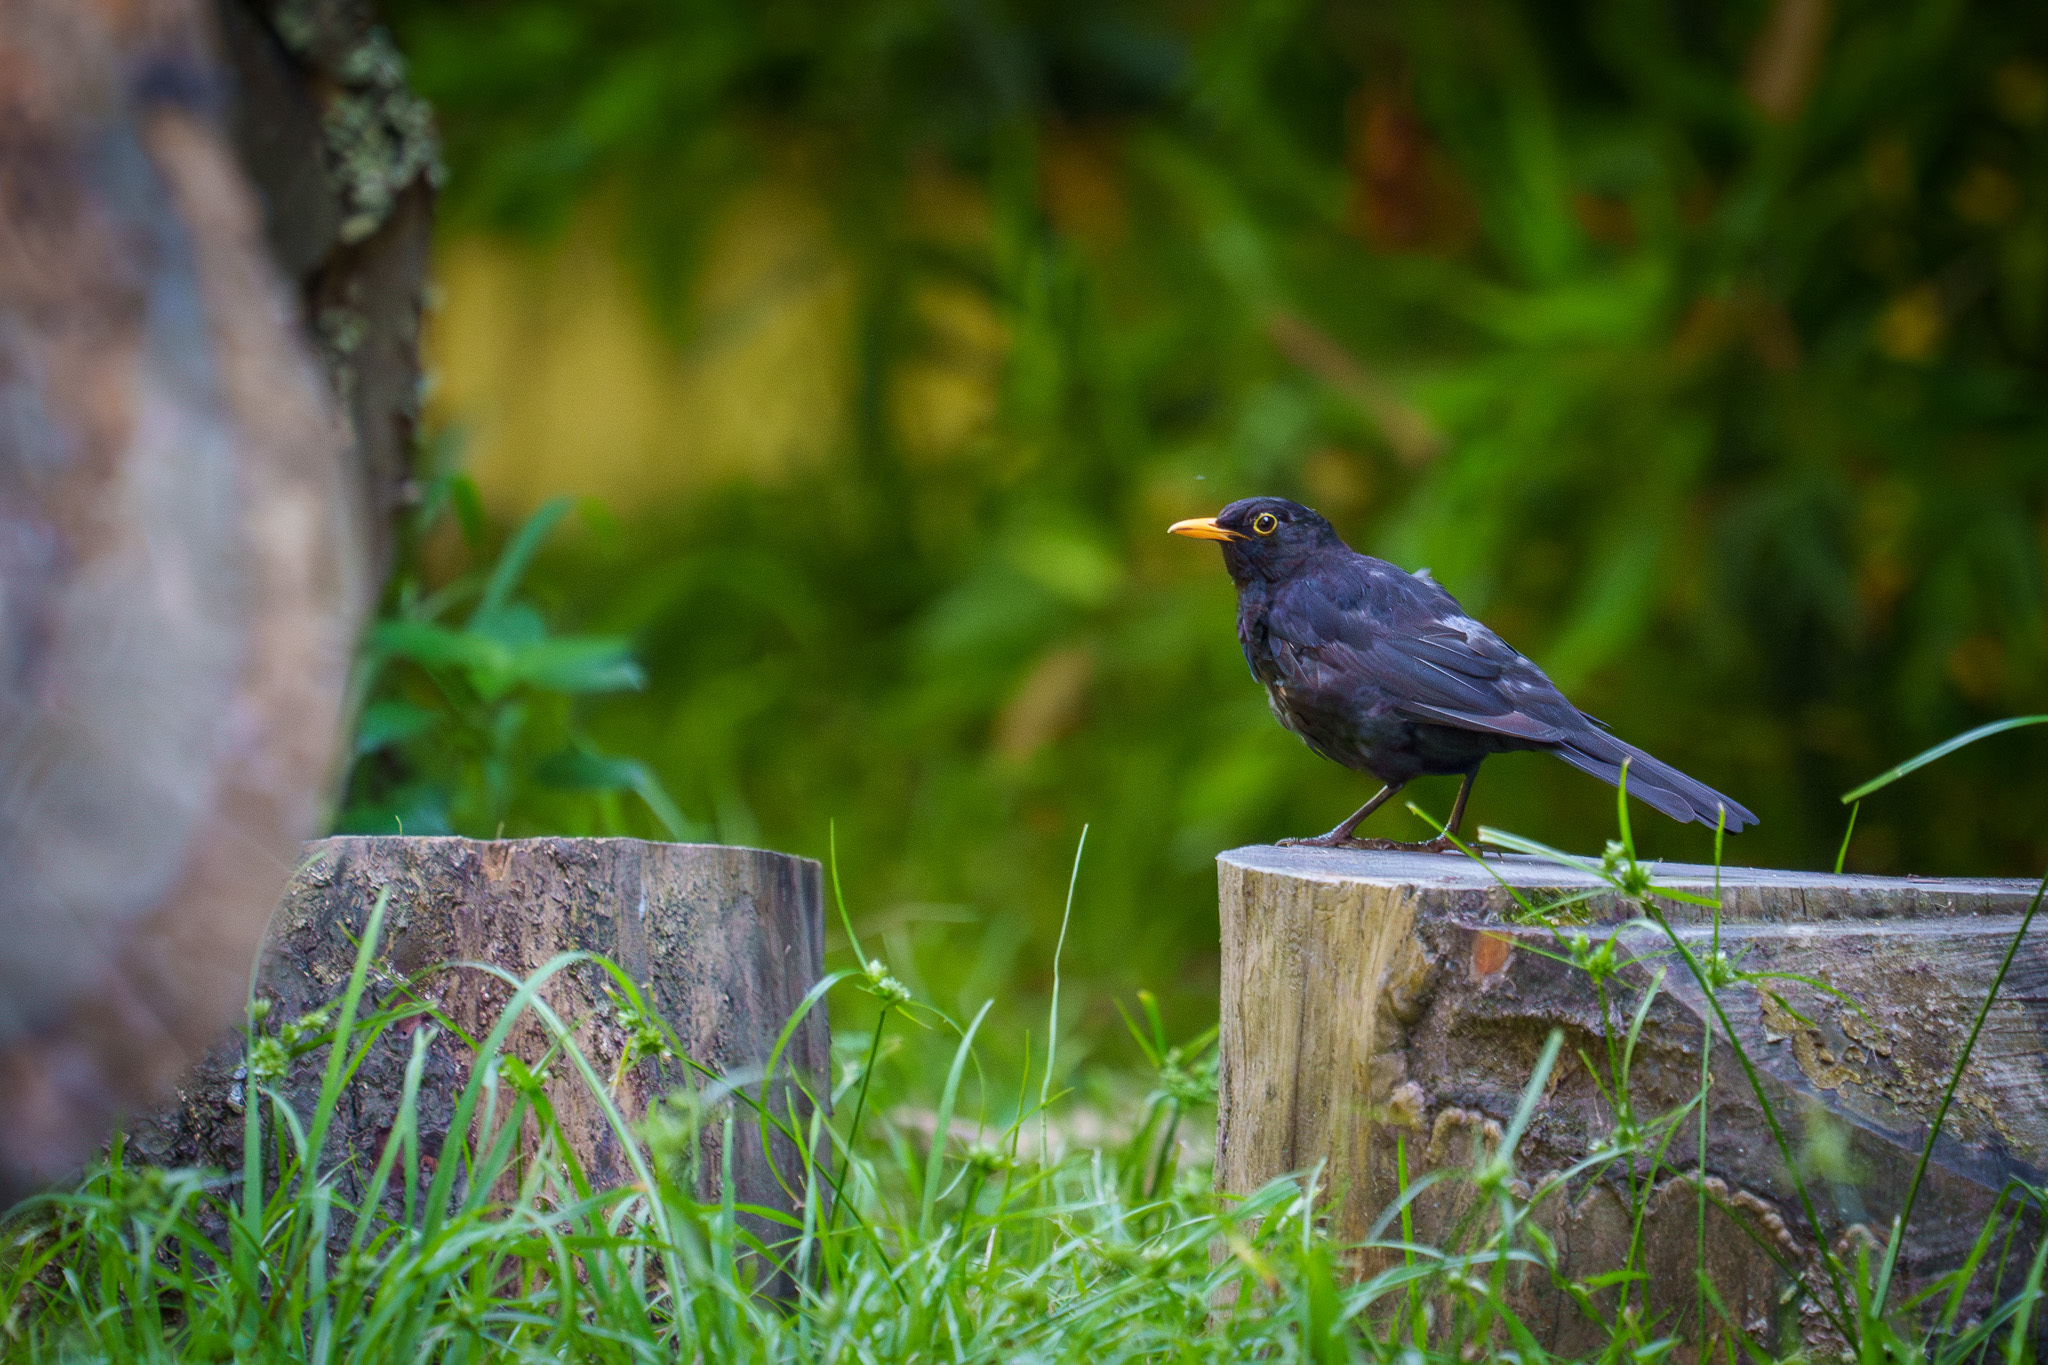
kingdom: Animalia
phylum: Chordata
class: Aves
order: Passeriformes
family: Turdidae
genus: Turdus
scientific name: Turdus merula
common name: Common blackbird
